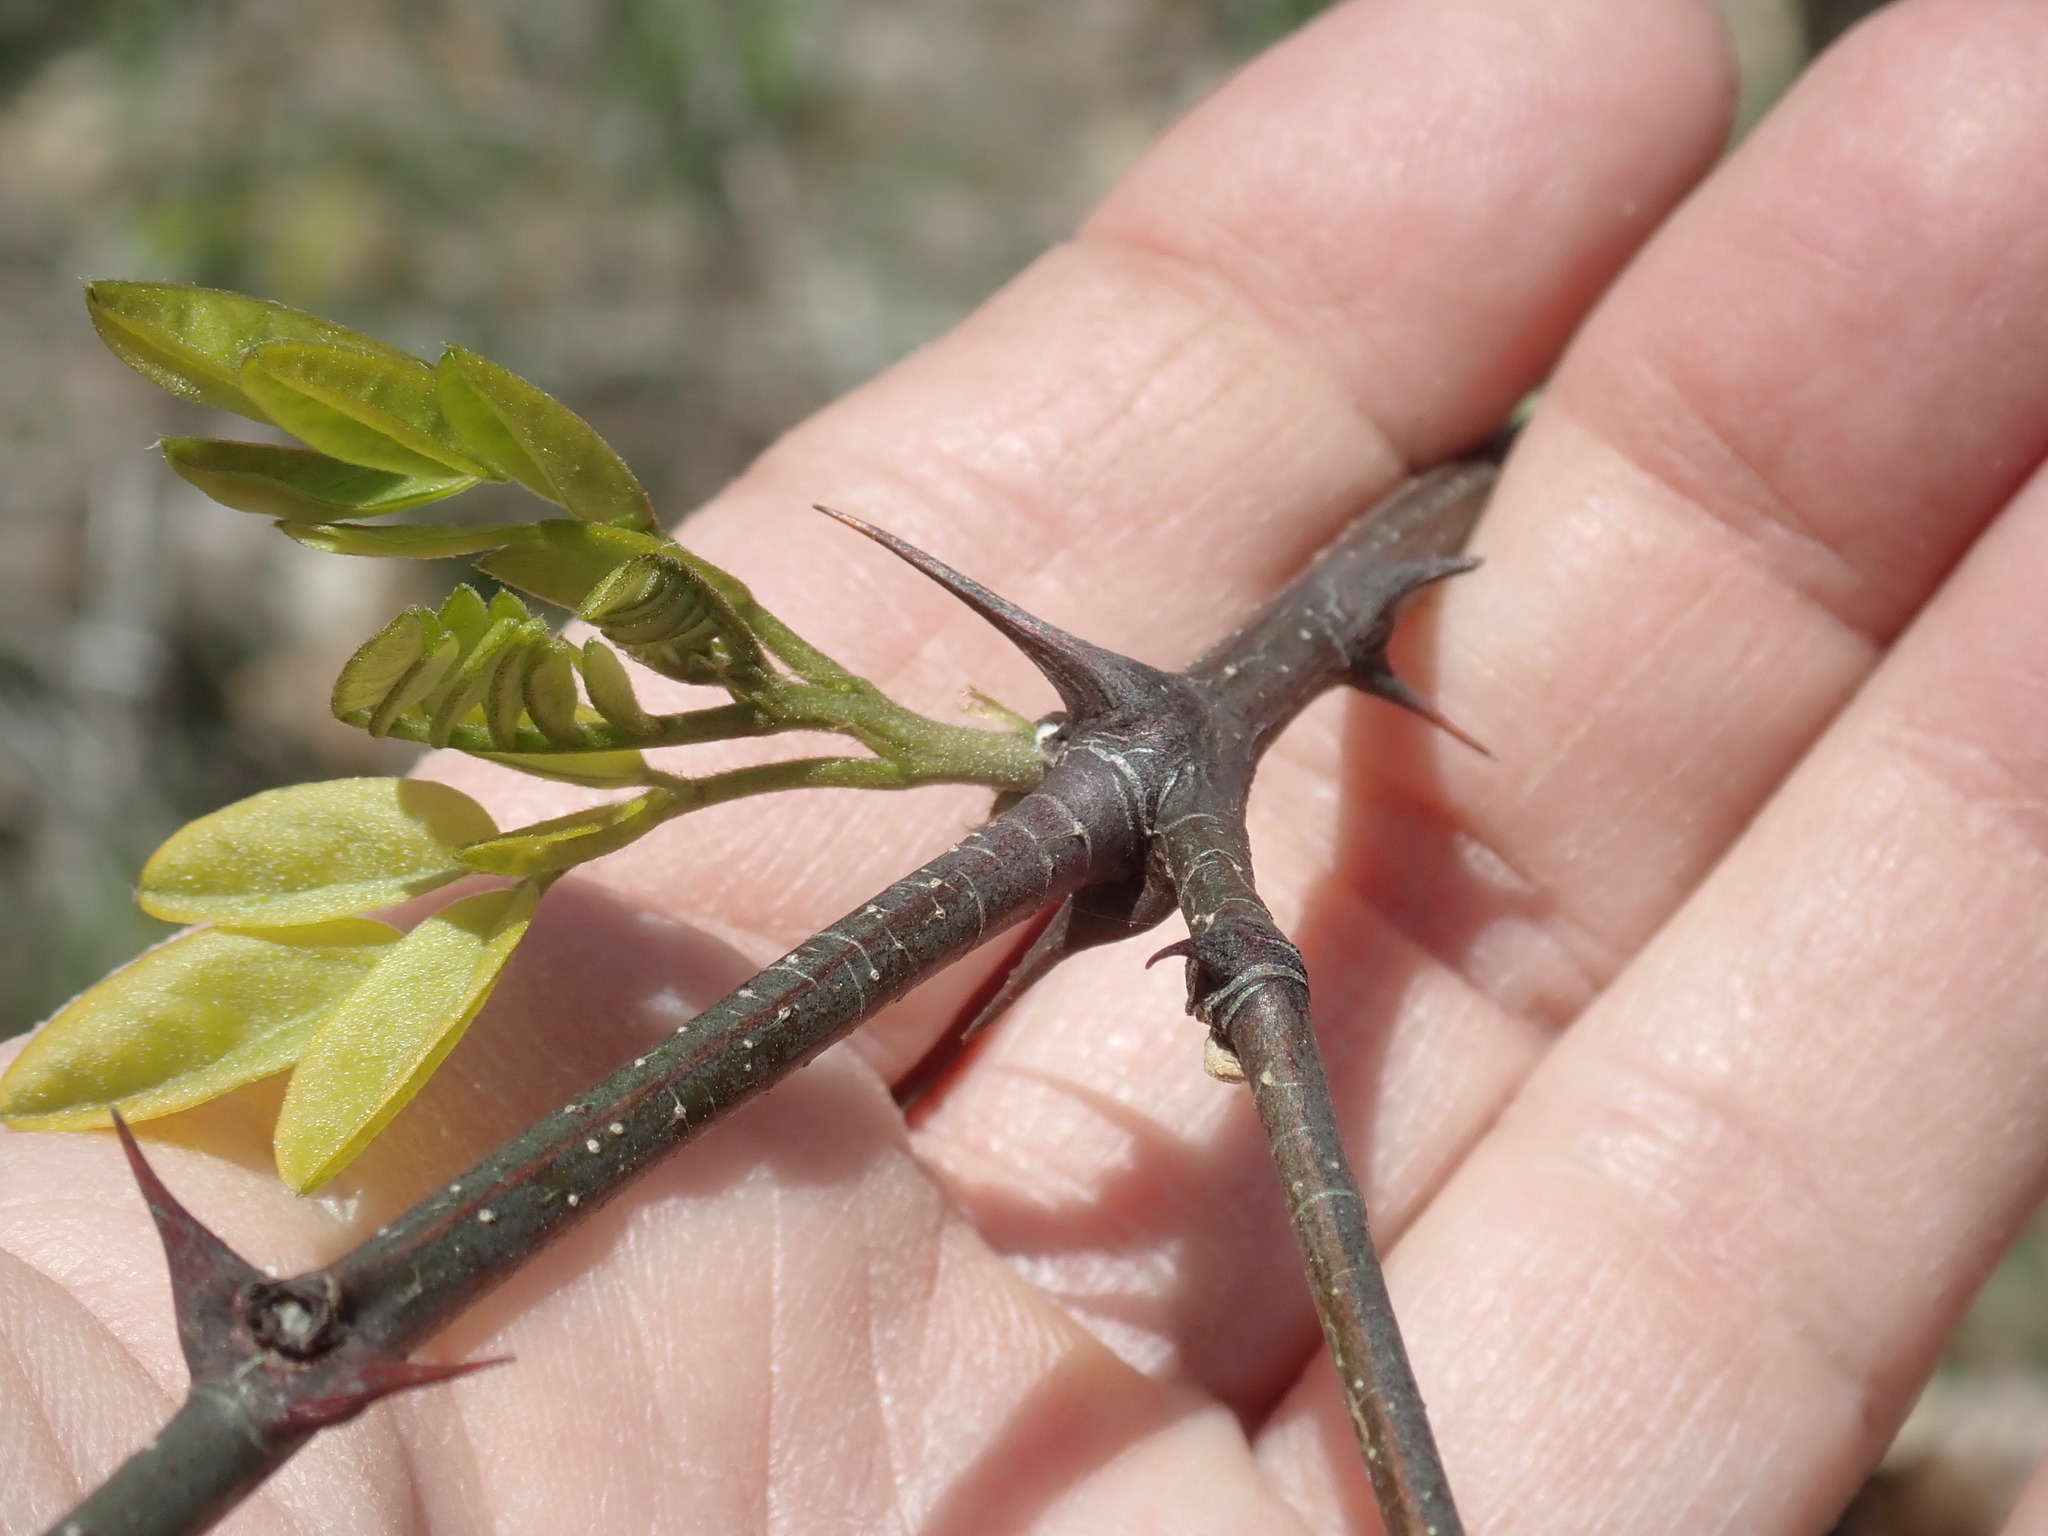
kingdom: Plantae
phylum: Tracheophyta
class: Magnoliopsida
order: Fabales
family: Fabaceae
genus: Robinia
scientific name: Robinia pseudoacacia
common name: Black locust
